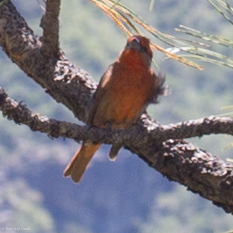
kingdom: Animalia
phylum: Chordata
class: Aves
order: Passeriformes
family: Cardinalidae
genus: Piranga
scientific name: Piranga flava
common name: Red tanager
